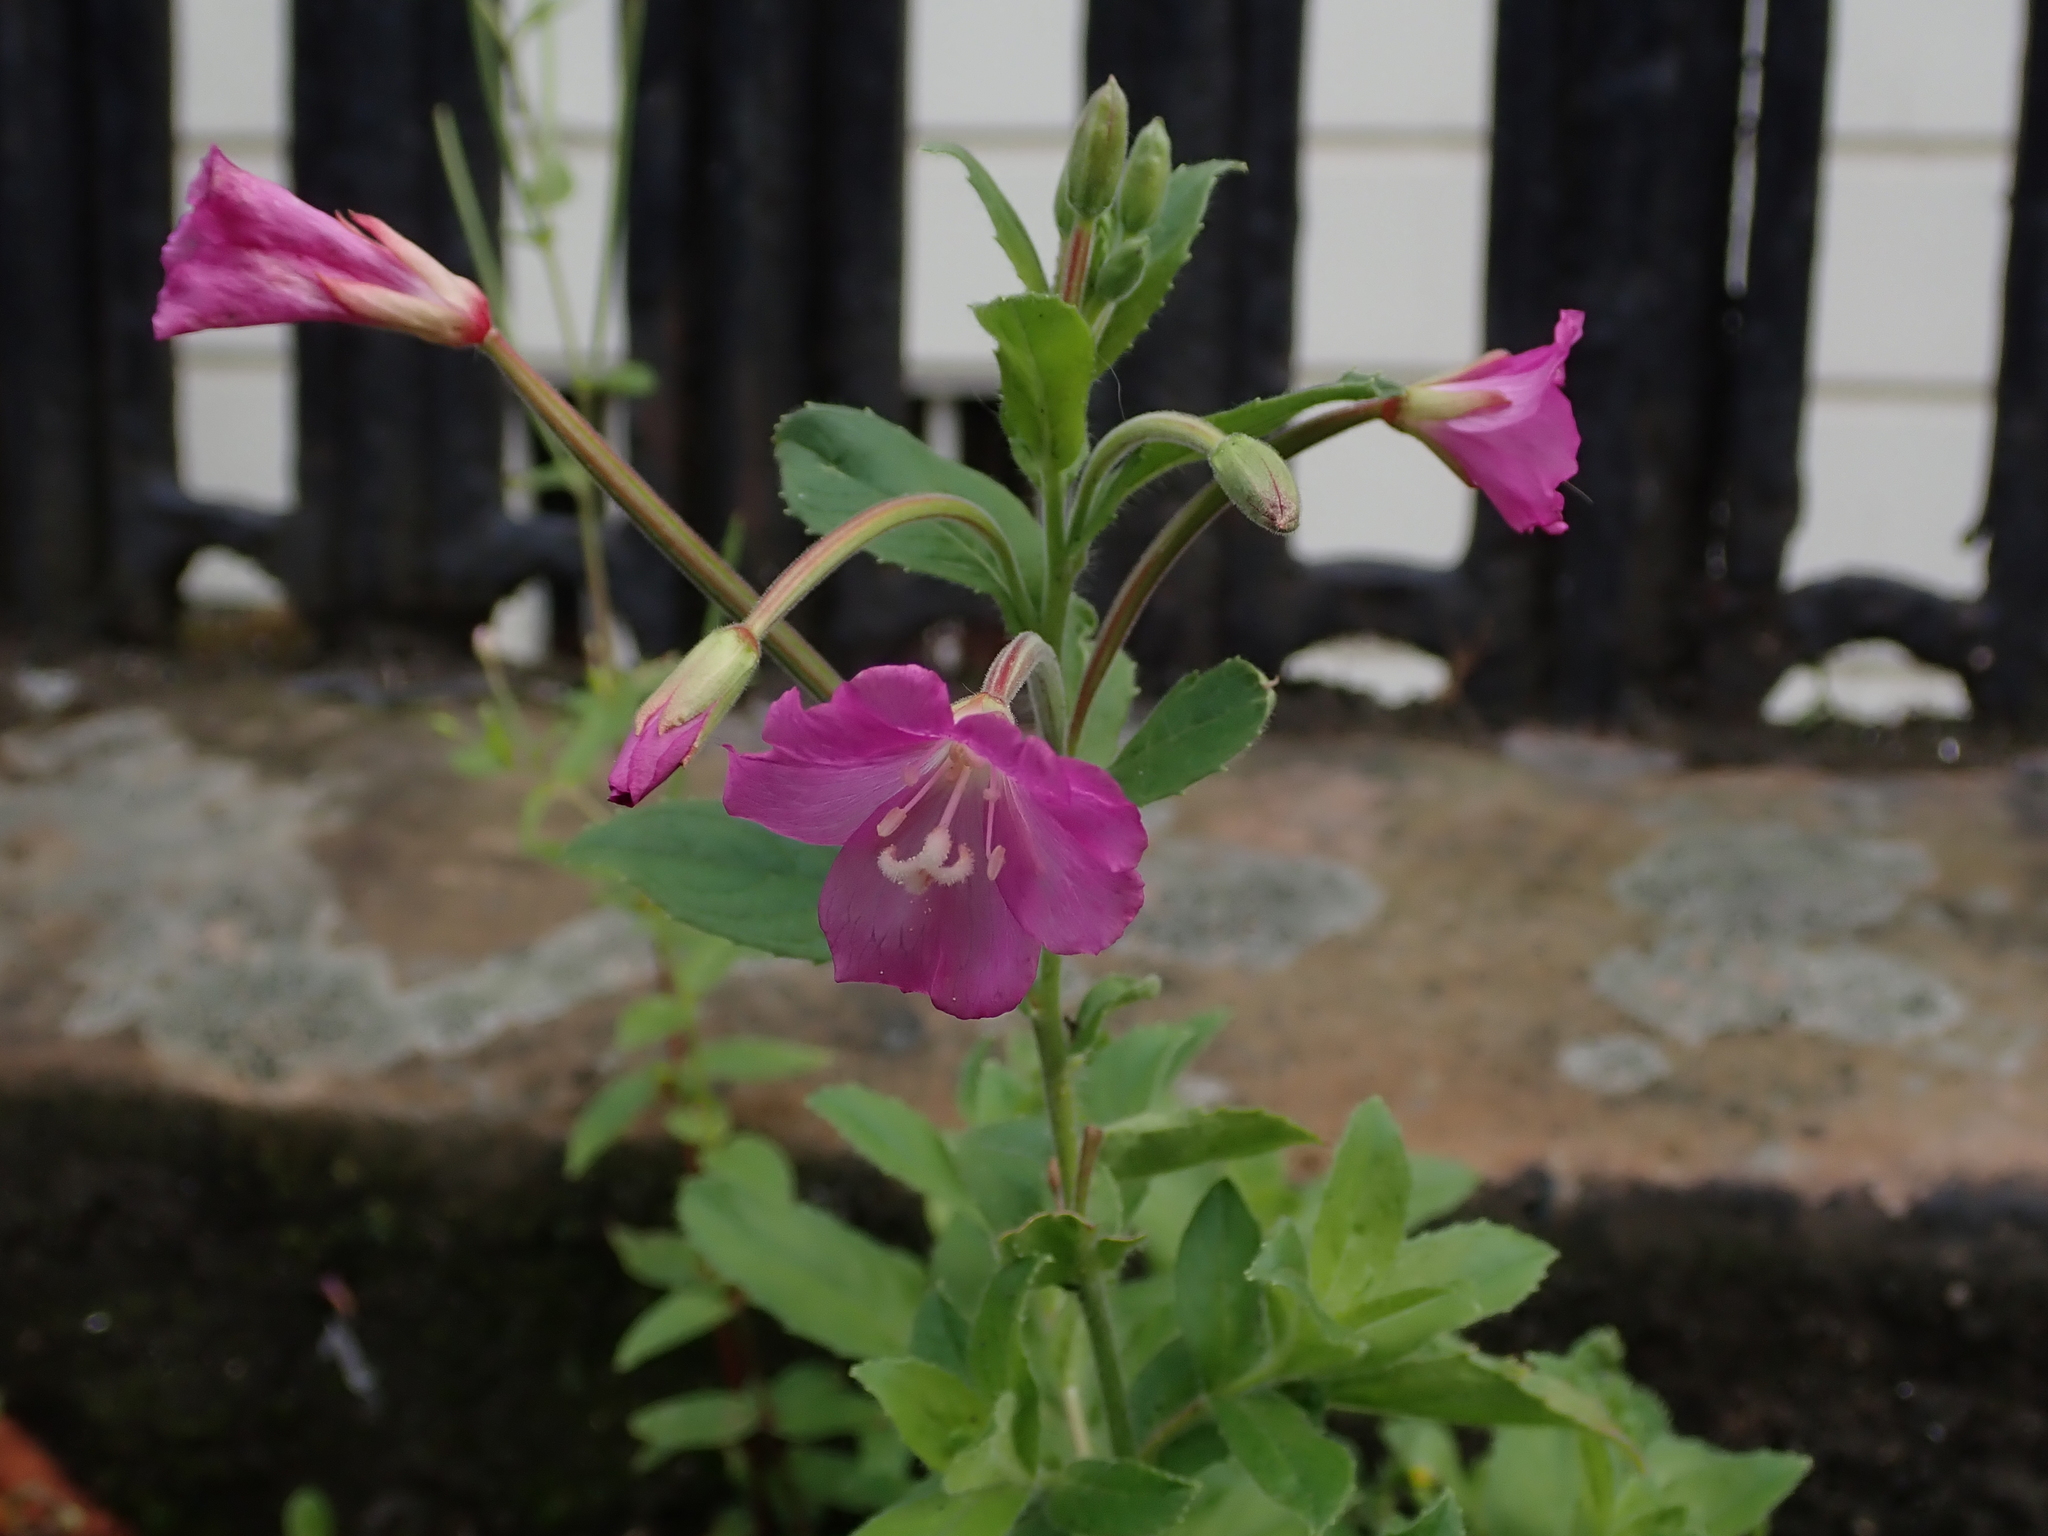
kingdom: Plantae
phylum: Tracheophyta
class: Magnoliopsida
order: Myrtales
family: Onagraceae
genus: Epilobium
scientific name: Epilobium hirsutum
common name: Great willowherb
